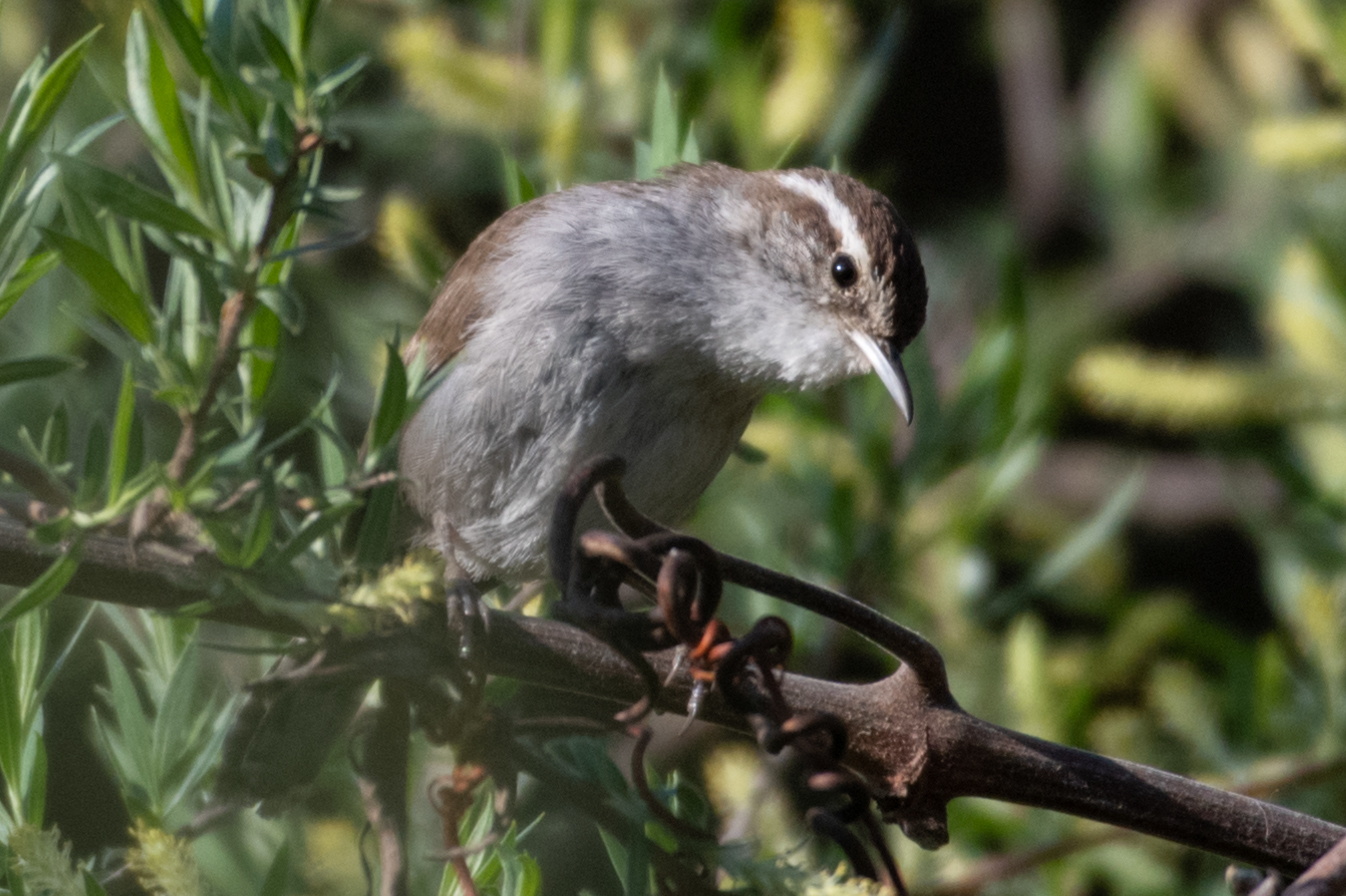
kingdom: Animalia
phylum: Chordata
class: Aves
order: Passeriformes
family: Troglodytidae
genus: Thryomanes
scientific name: Thryomanes bewickii
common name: Bewick's wren
